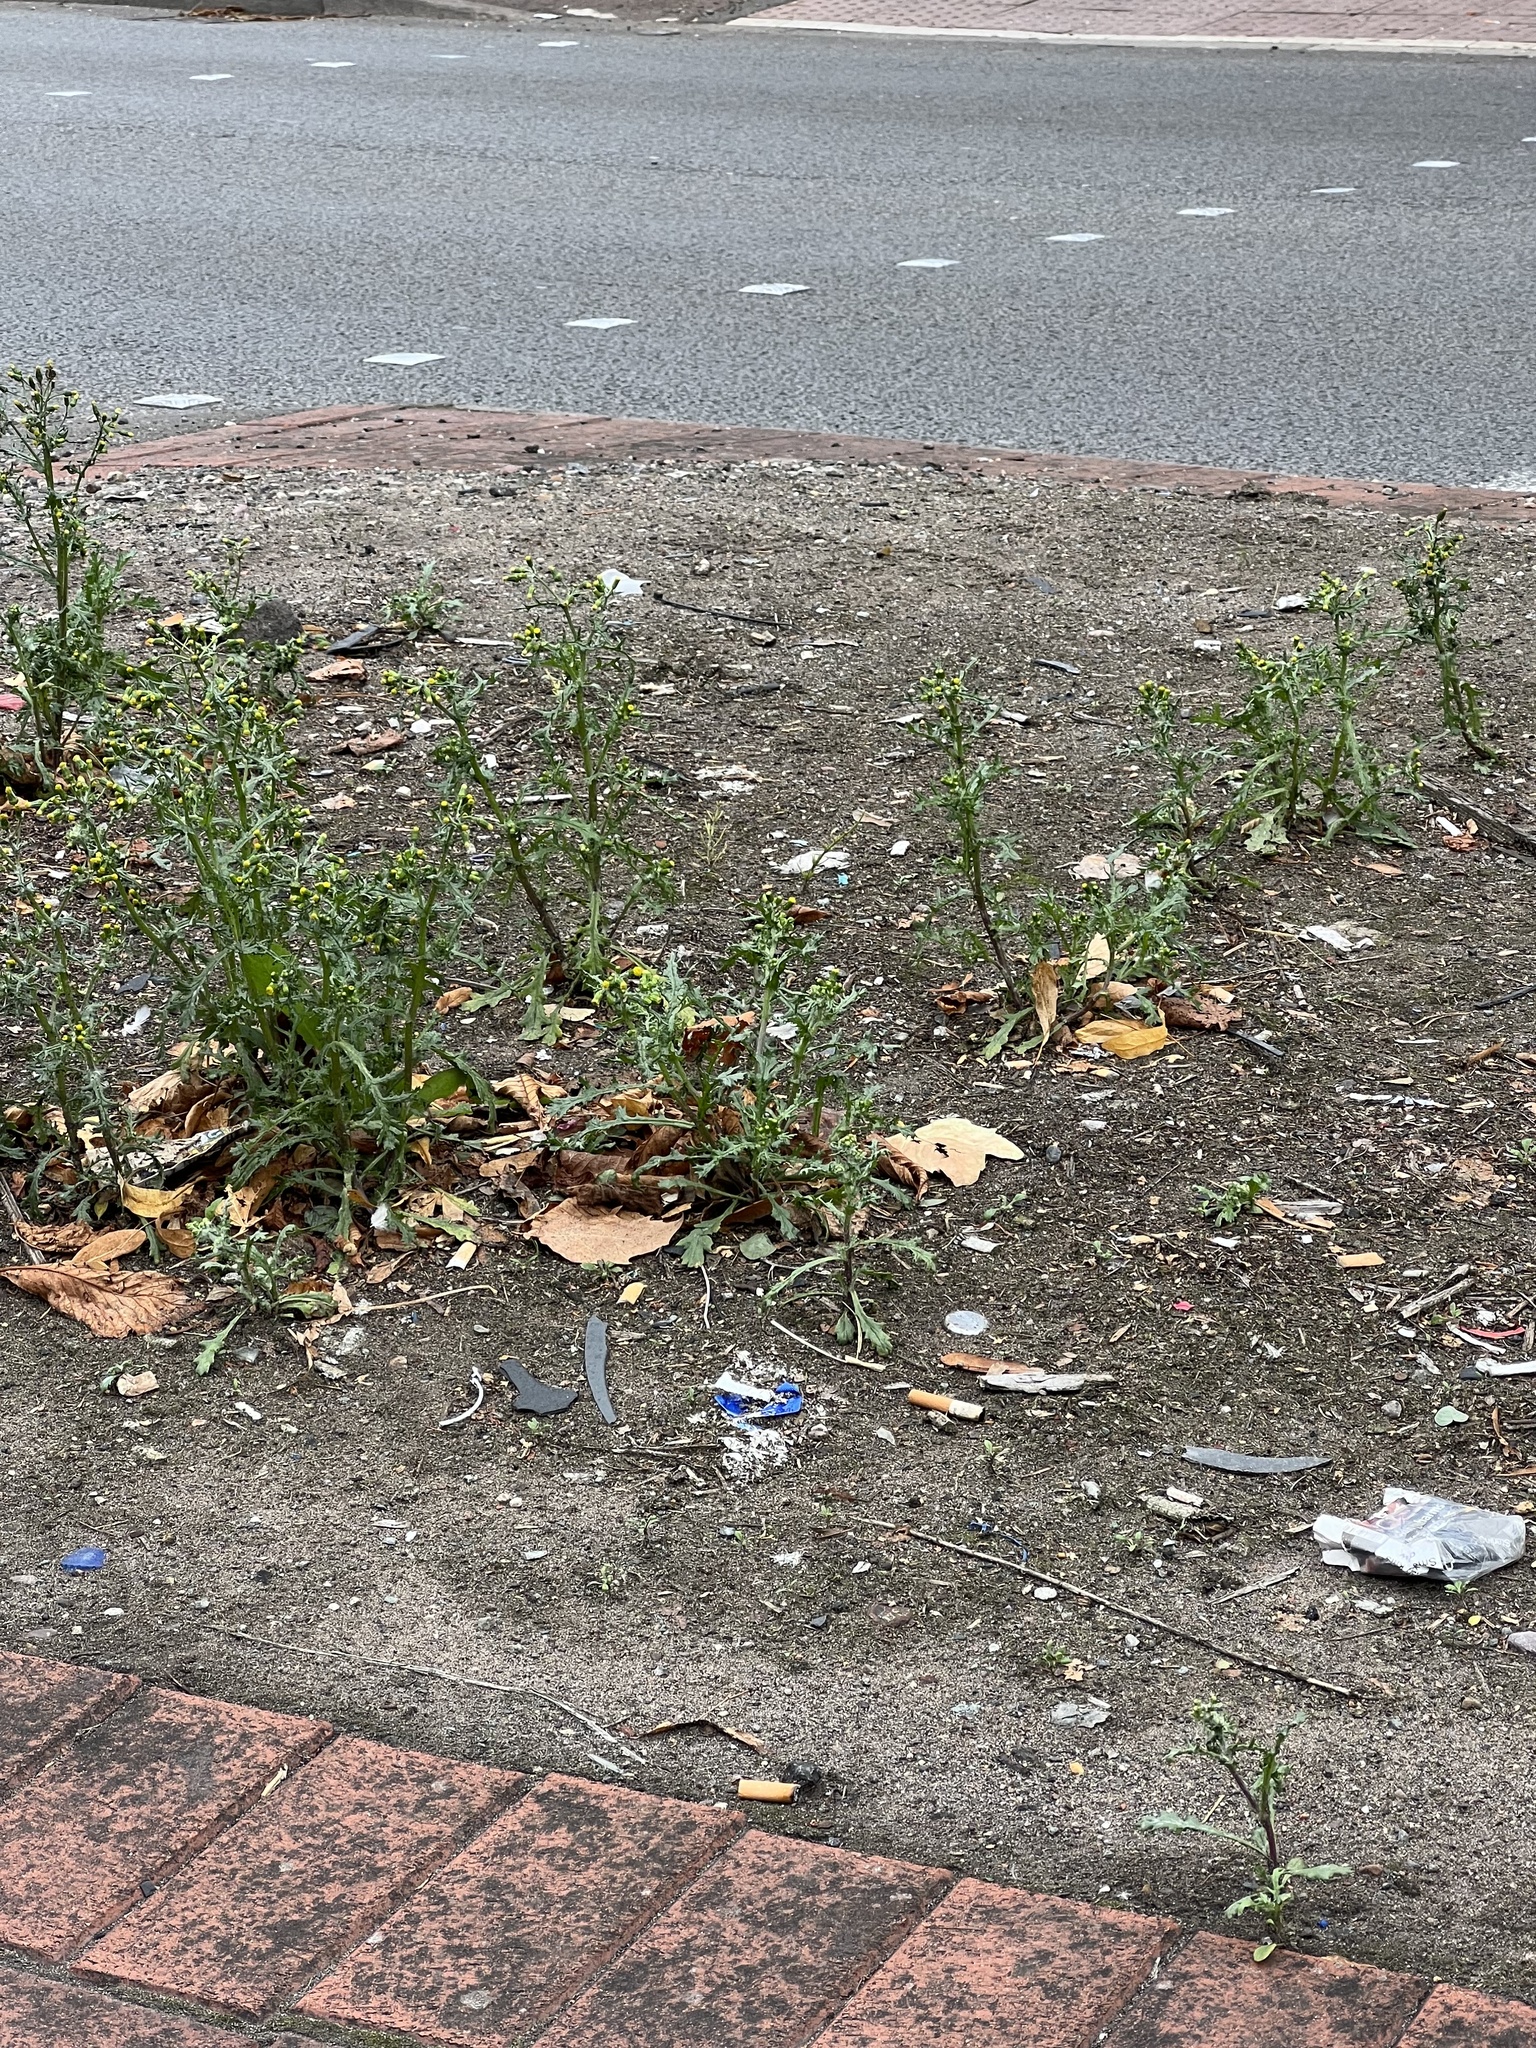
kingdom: Plantae
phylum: Tracheophyta
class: Magnoliopsida
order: Asterales
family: Asteraceae
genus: Senecio
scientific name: Senecio vulgaris
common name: Old-man-in-the-spring
